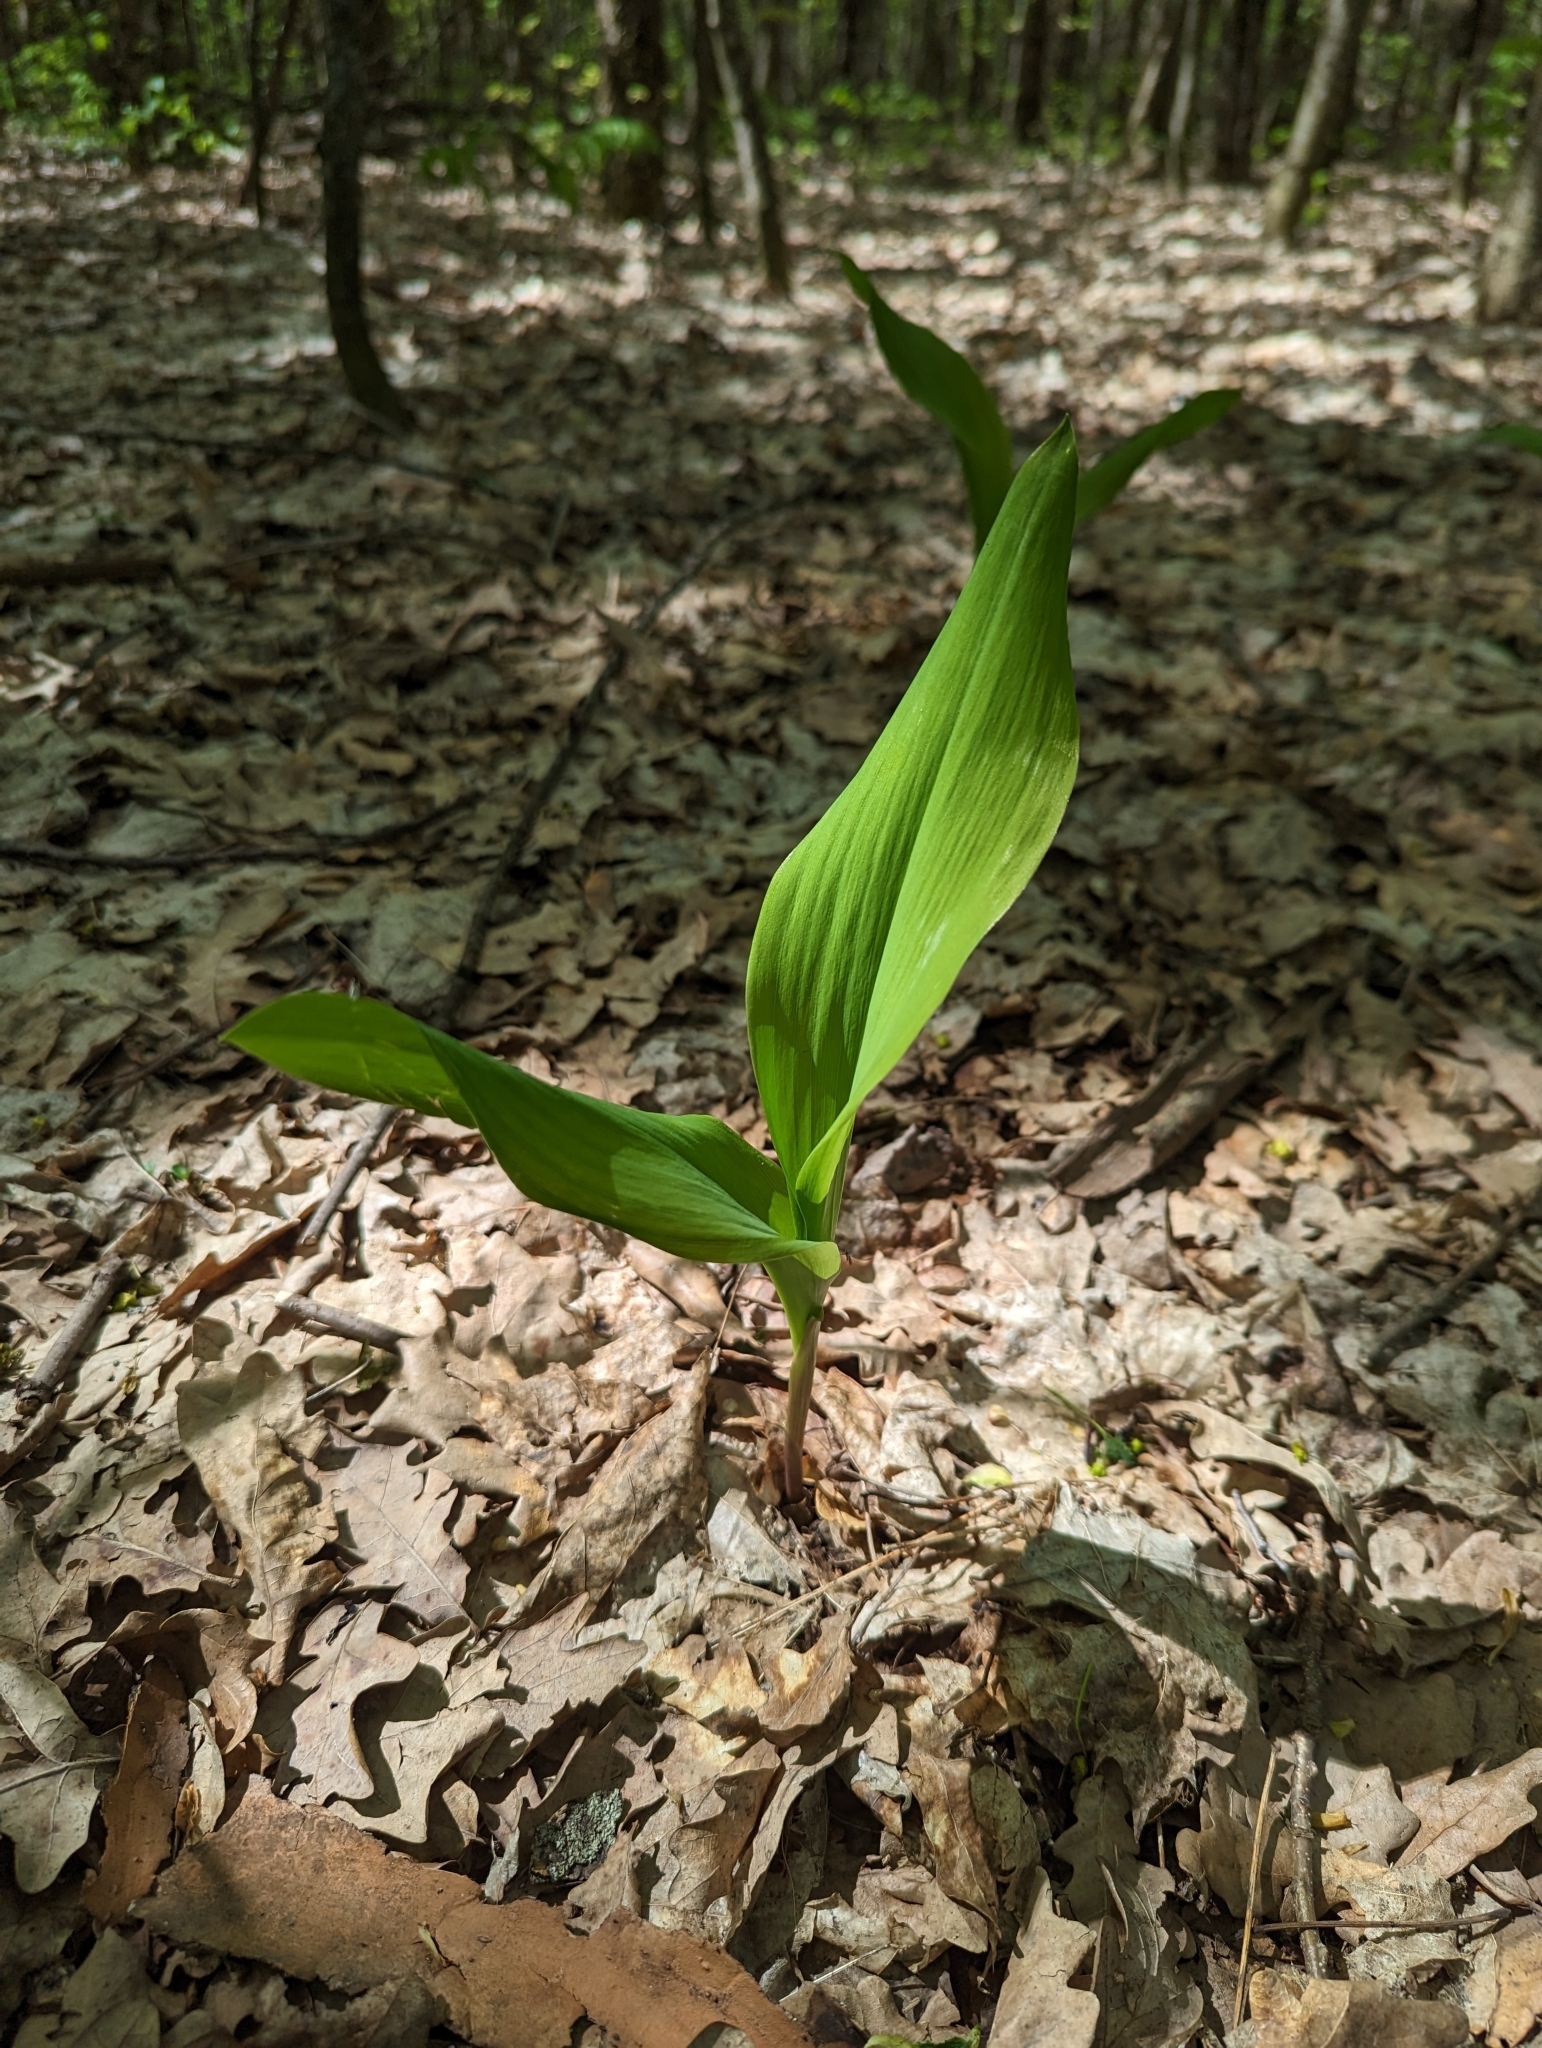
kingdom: Plantae
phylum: Tracheophyta
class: Liliopsida
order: Asparagales
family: Asparagaceae
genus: Convallaria
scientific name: Convallaria majalis
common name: Lily-of-the-valley
